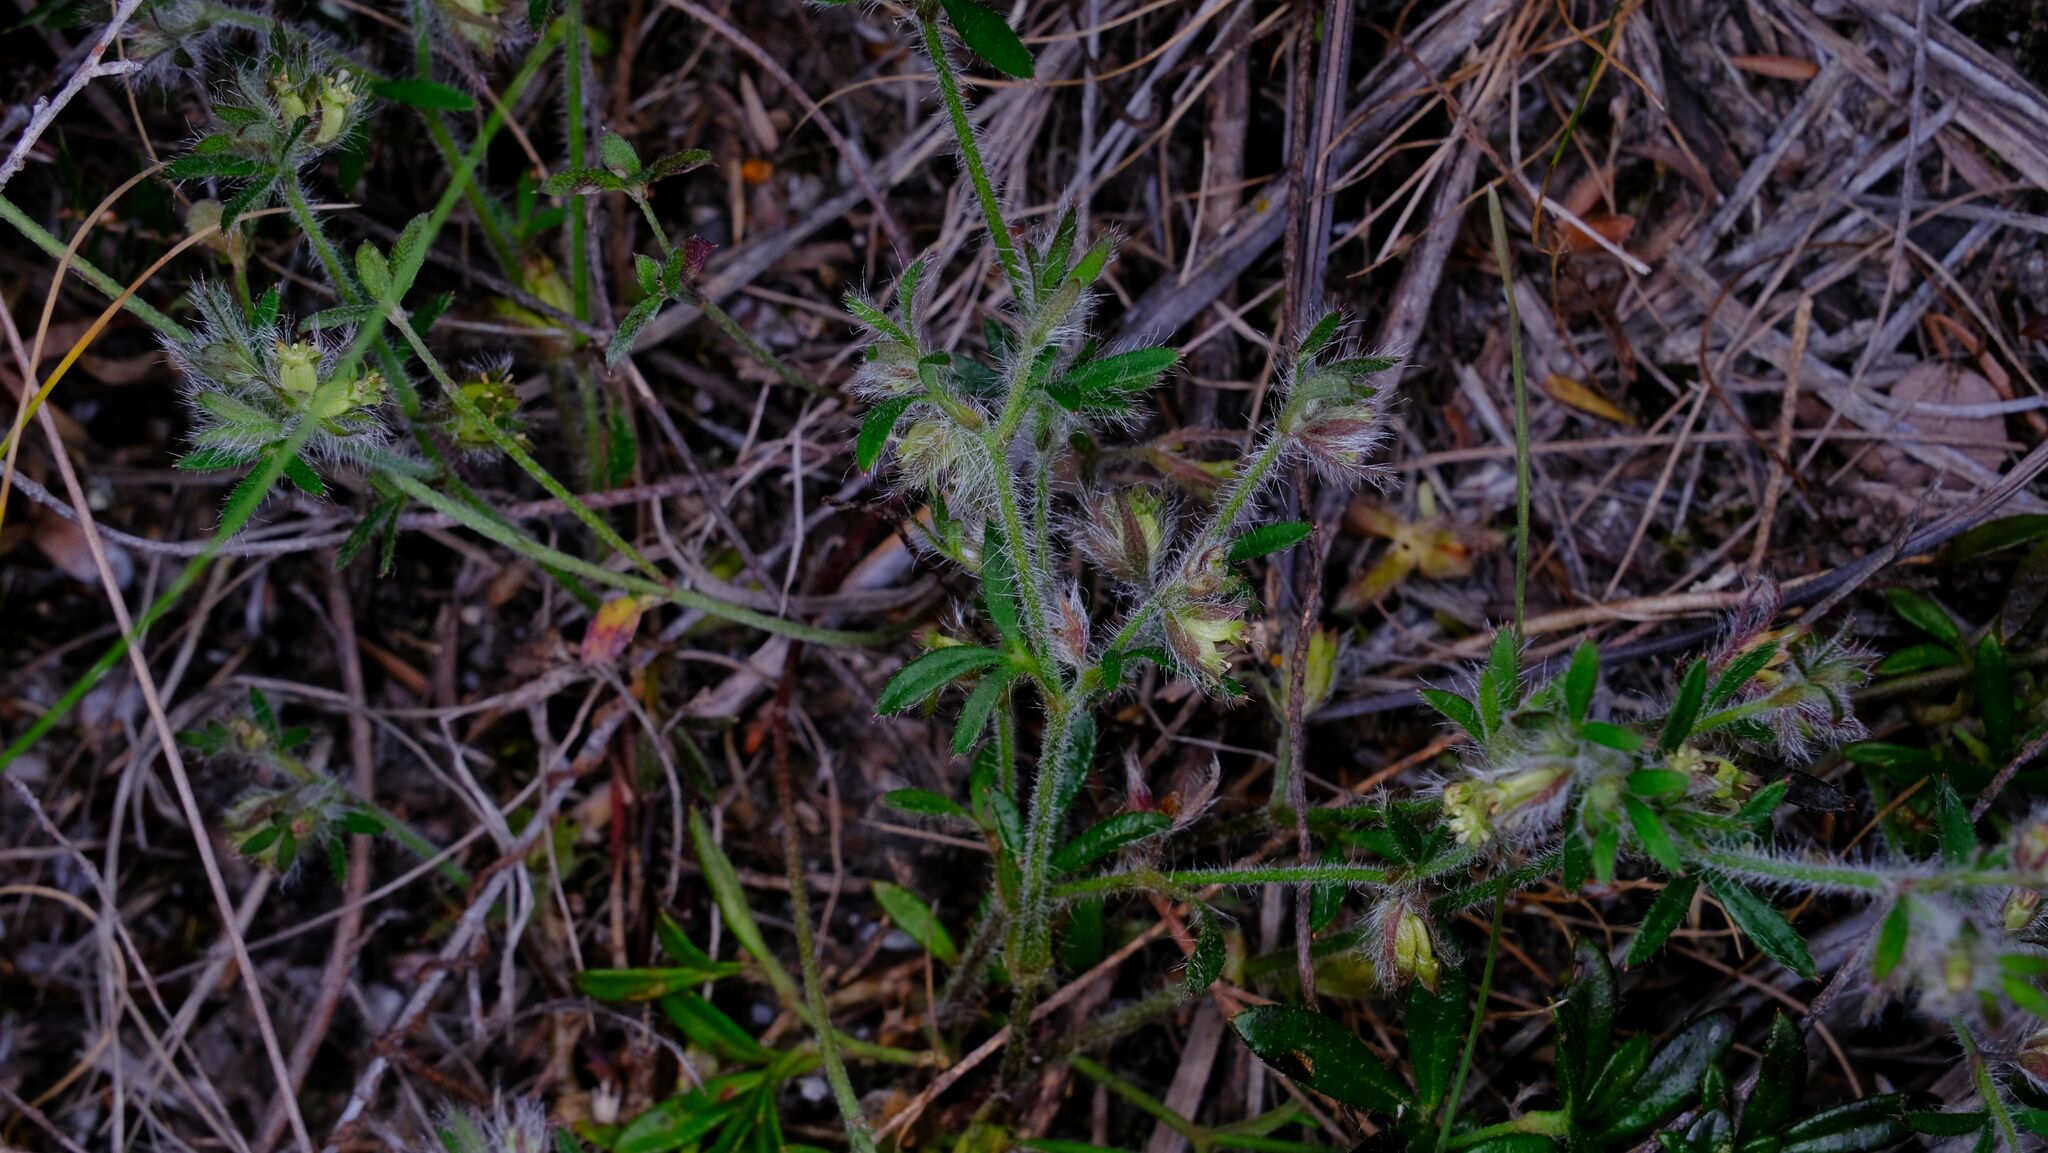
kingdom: Plantae
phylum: Tracheophyta
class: Magnoliopsida
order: Apiales
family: Apiaceae
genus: Xanthosia
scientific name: Xanthosia huegelii
